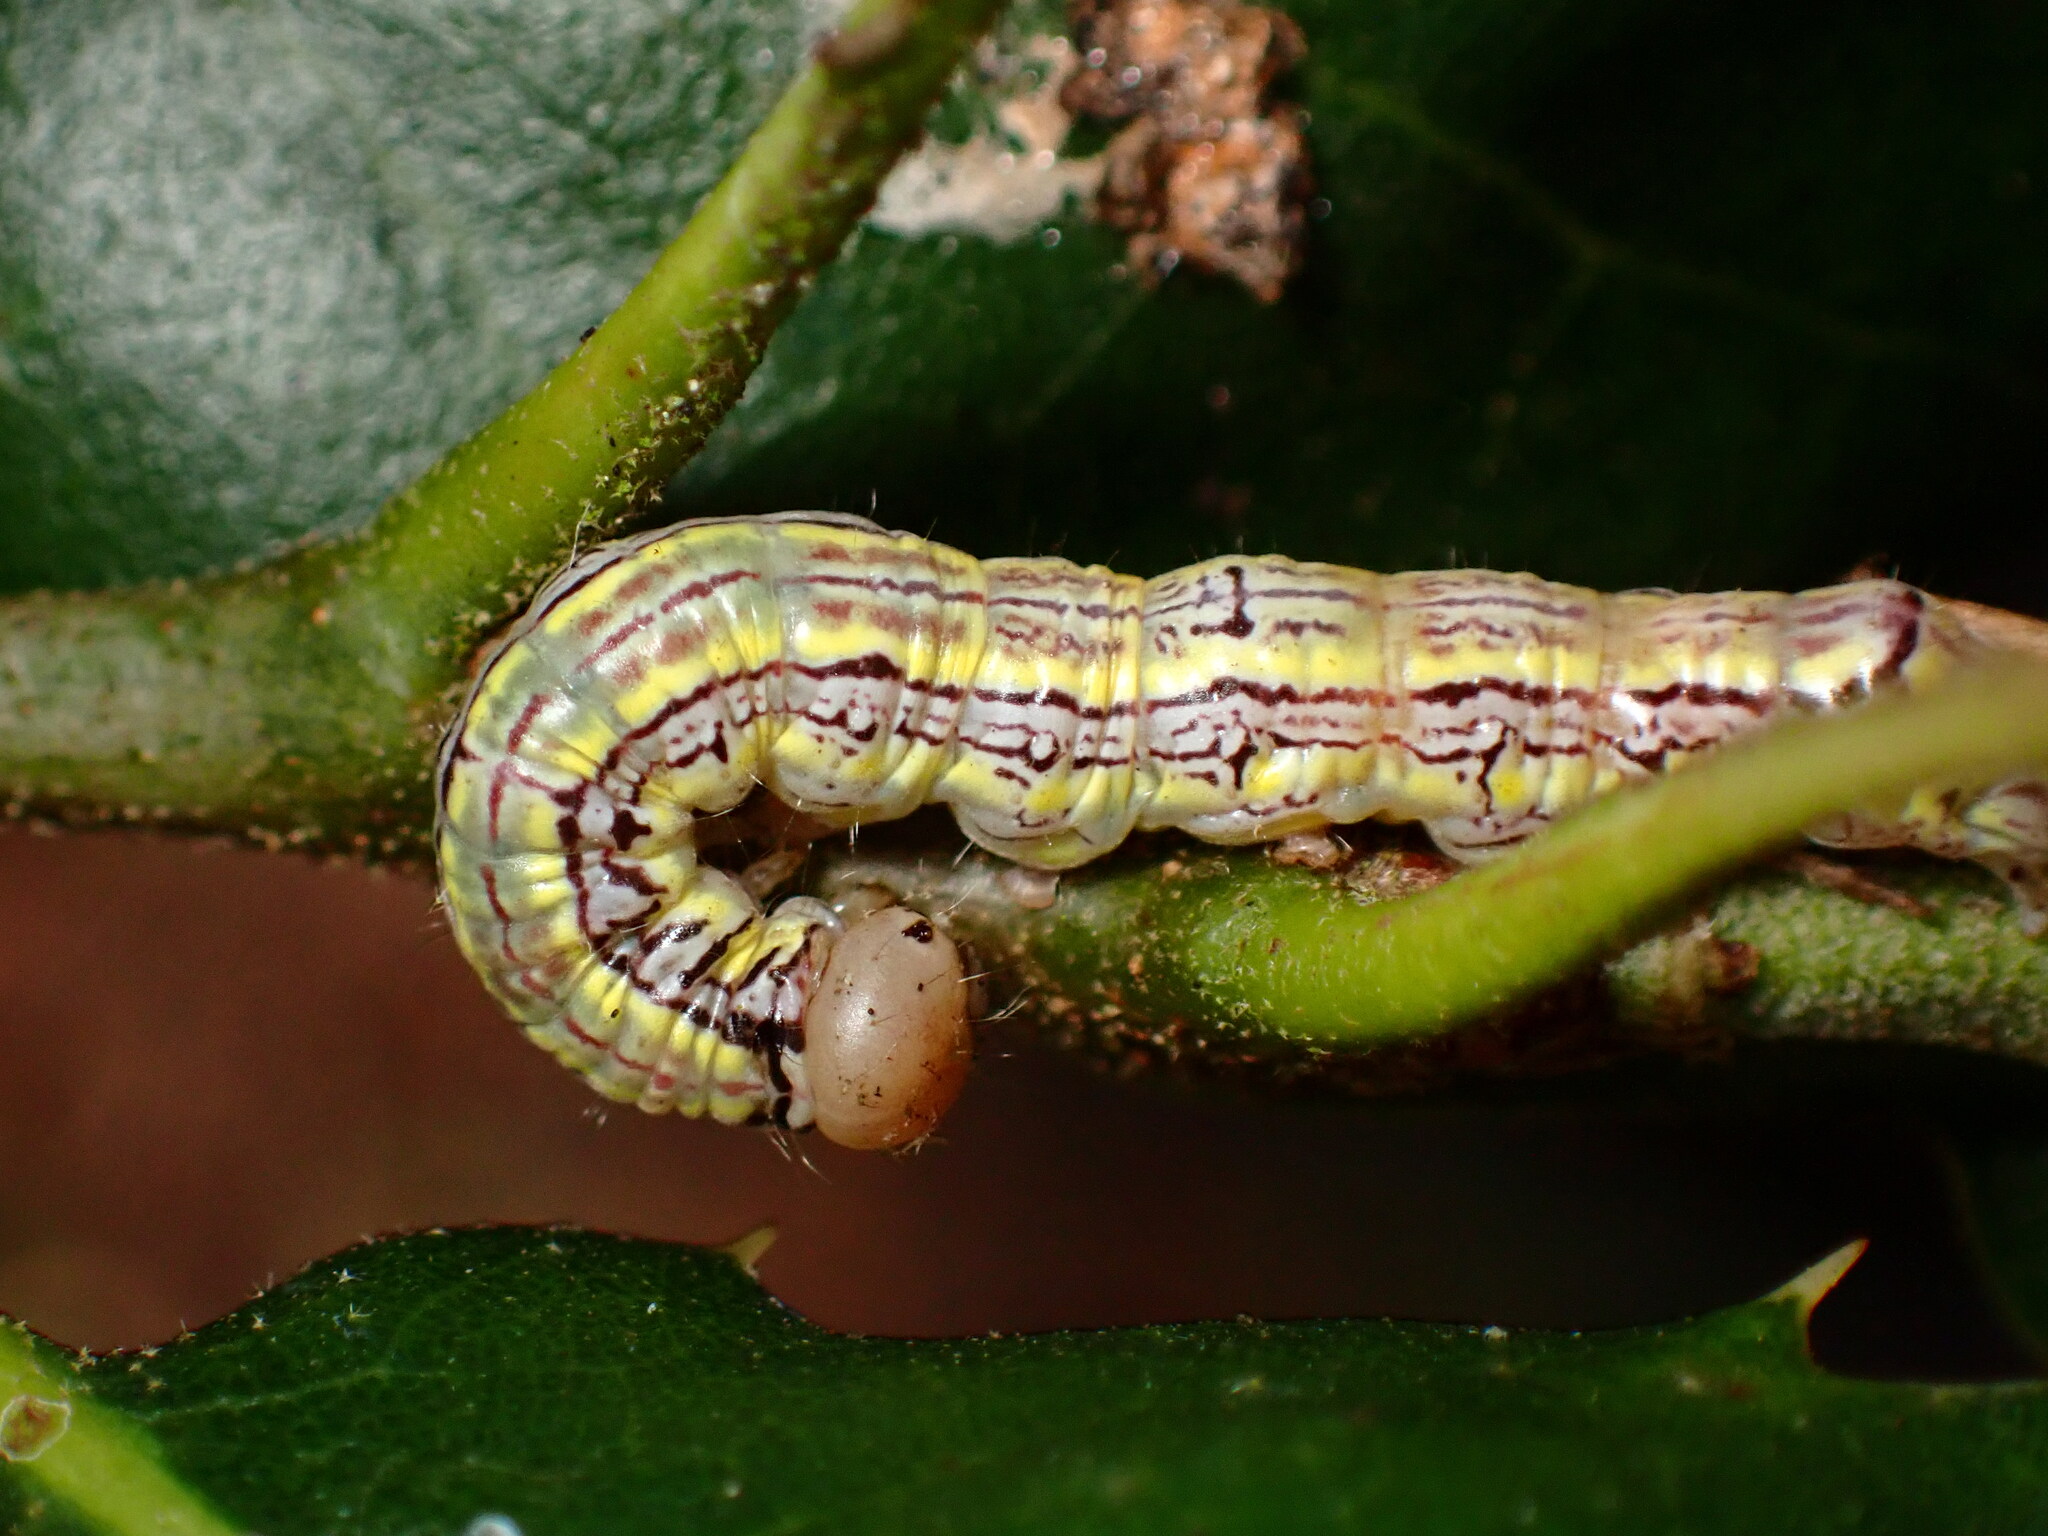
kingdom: Animalia
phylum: Arthropoda
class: Insecta
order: Lepidoptera
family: Notodontidae
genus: Phryganidia
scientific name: Phryganidia californica
